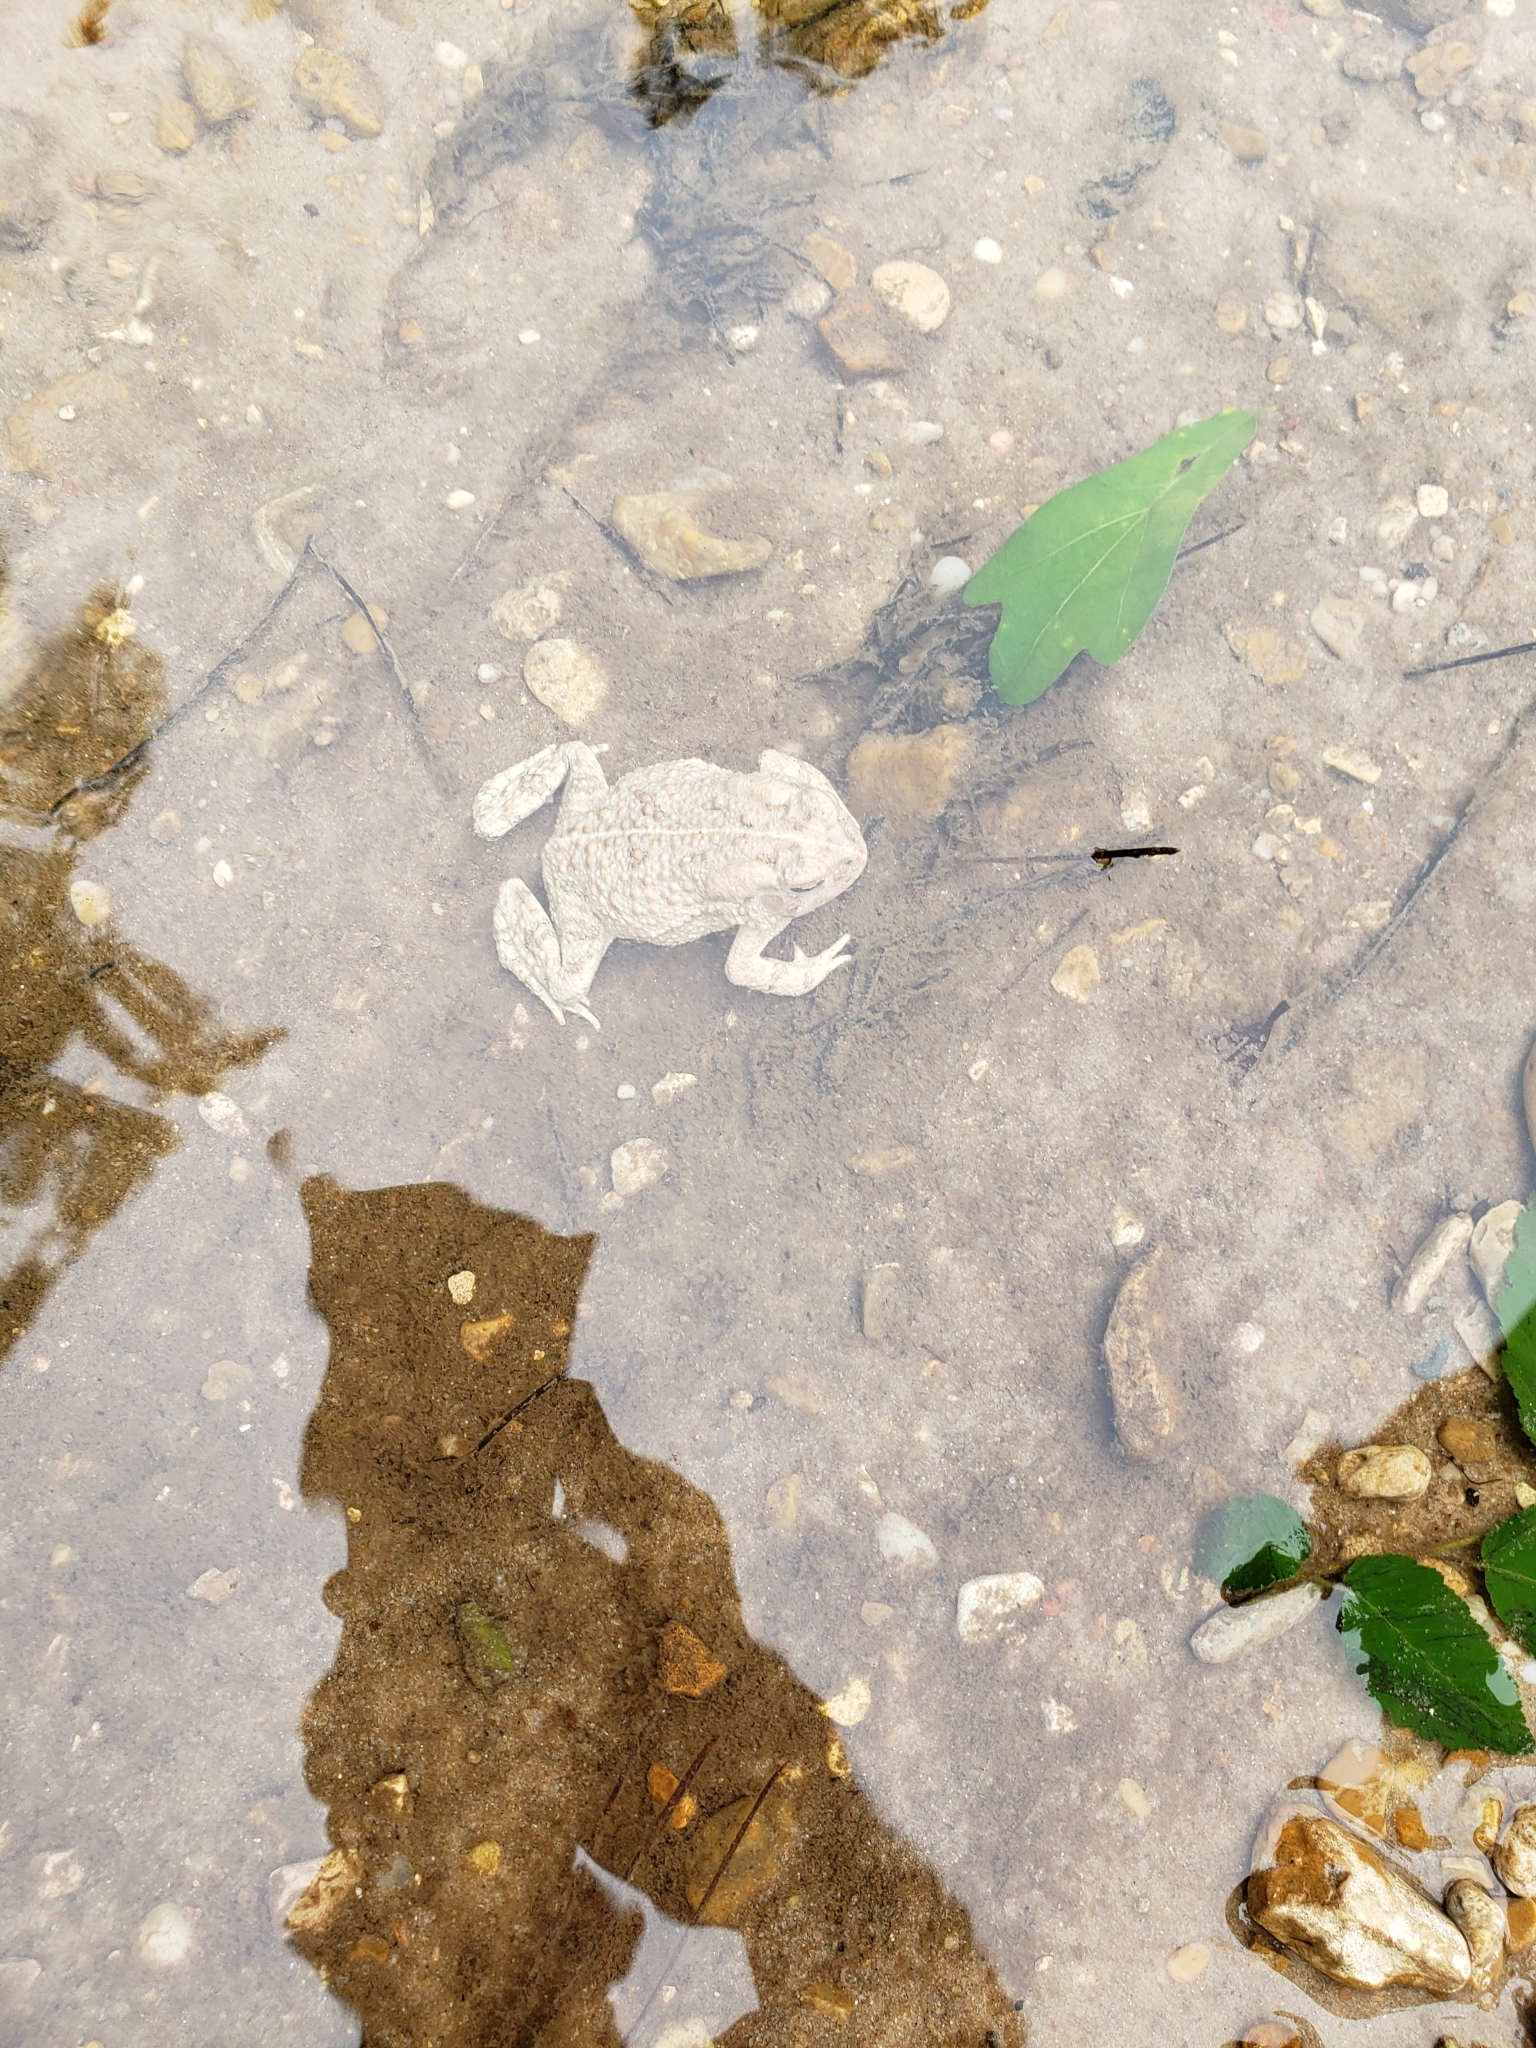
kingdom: Animalia
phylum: Chordata
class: Amphibia
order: Anura
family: Bufonidae
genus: Anaxyrus
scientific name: Anaxyrus fowleri
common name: Fowler's toad
